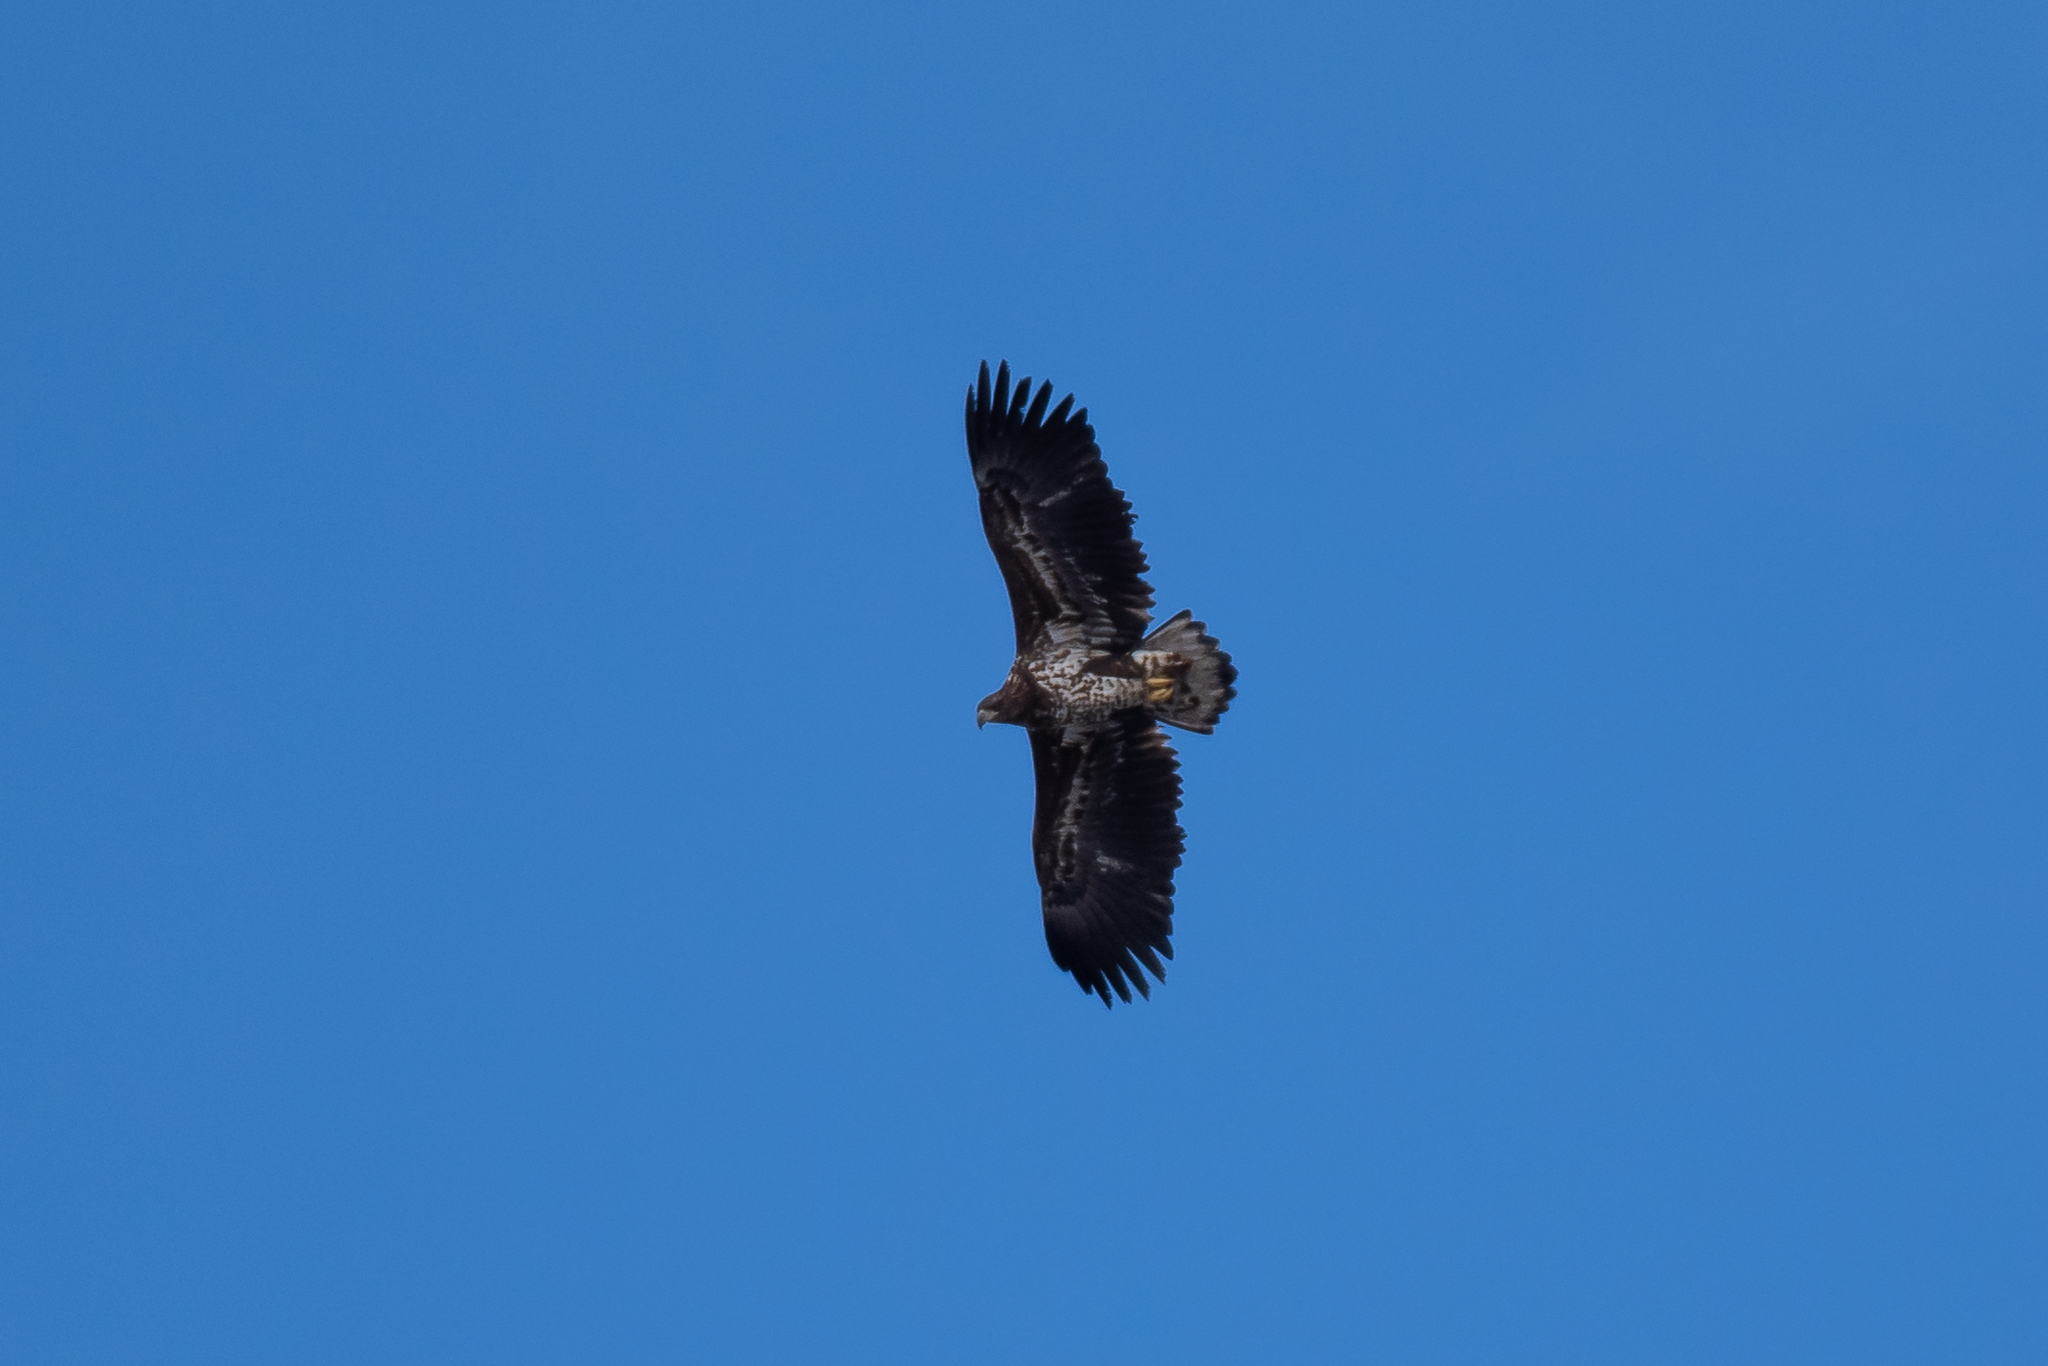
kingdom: Animalia
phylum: Chordata
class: Aves
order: Accipitriformes
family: Accipitridae
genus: Haliaeetus
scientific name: Haliaeetus albicilla
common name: White-tailed eagle
